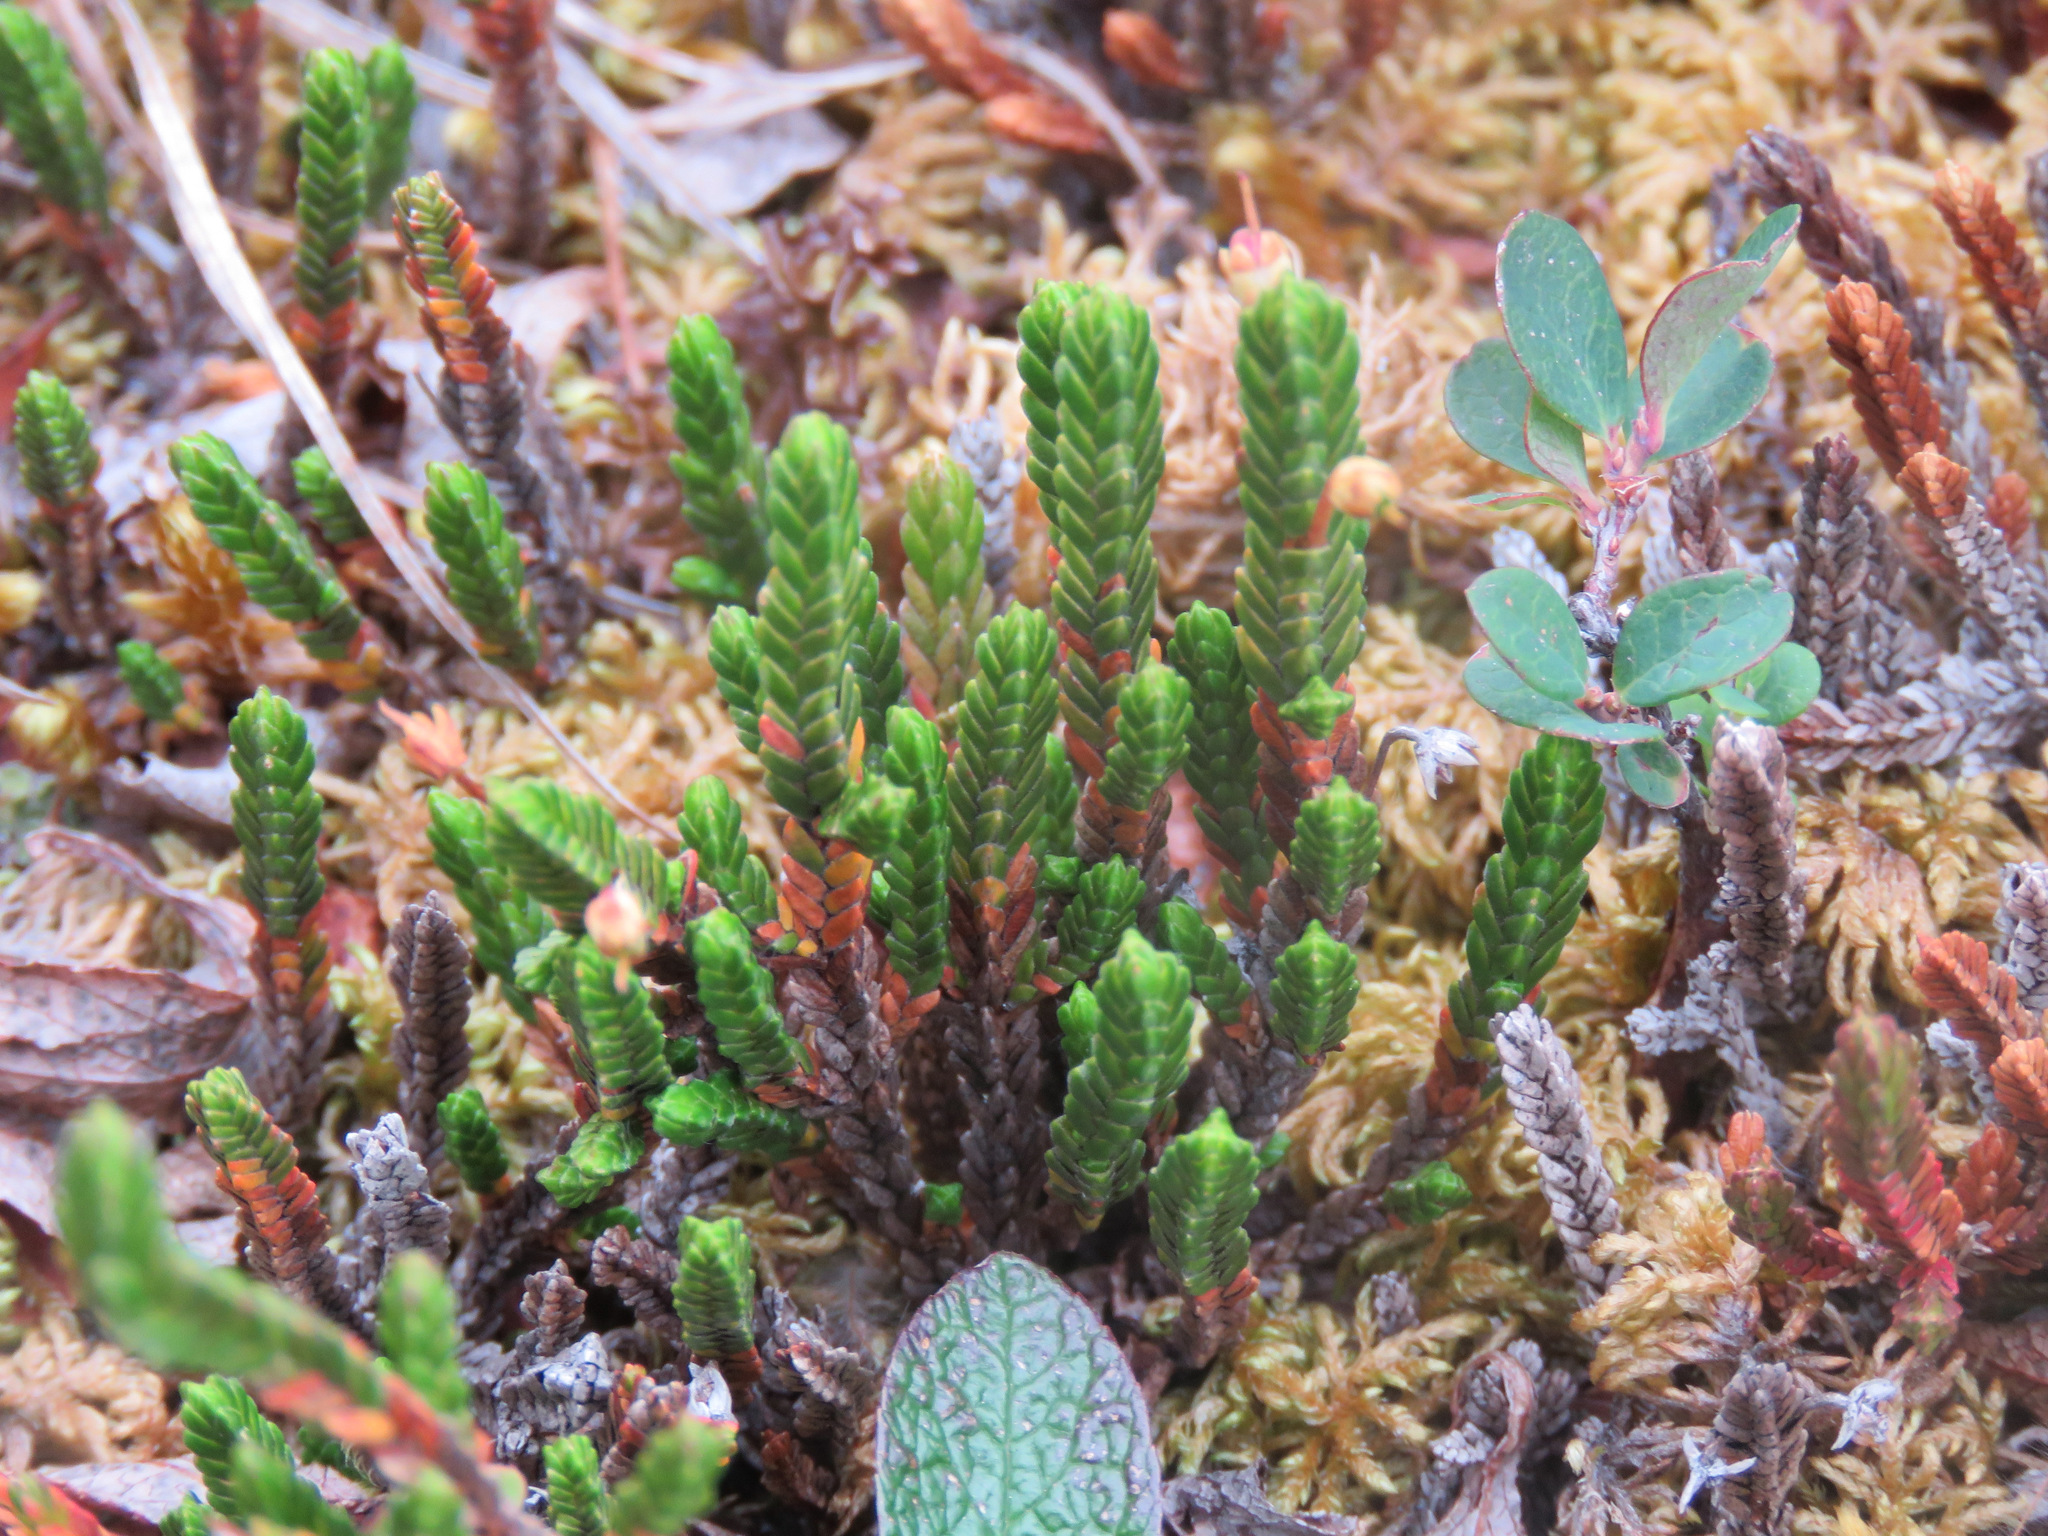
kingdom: Plantae
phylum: Tracheophyta
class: Magnoliopsida
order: Ericales
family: Ericaceae
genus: Cassiope
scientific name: Cassiope tetragona
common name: Arctic bell heather
